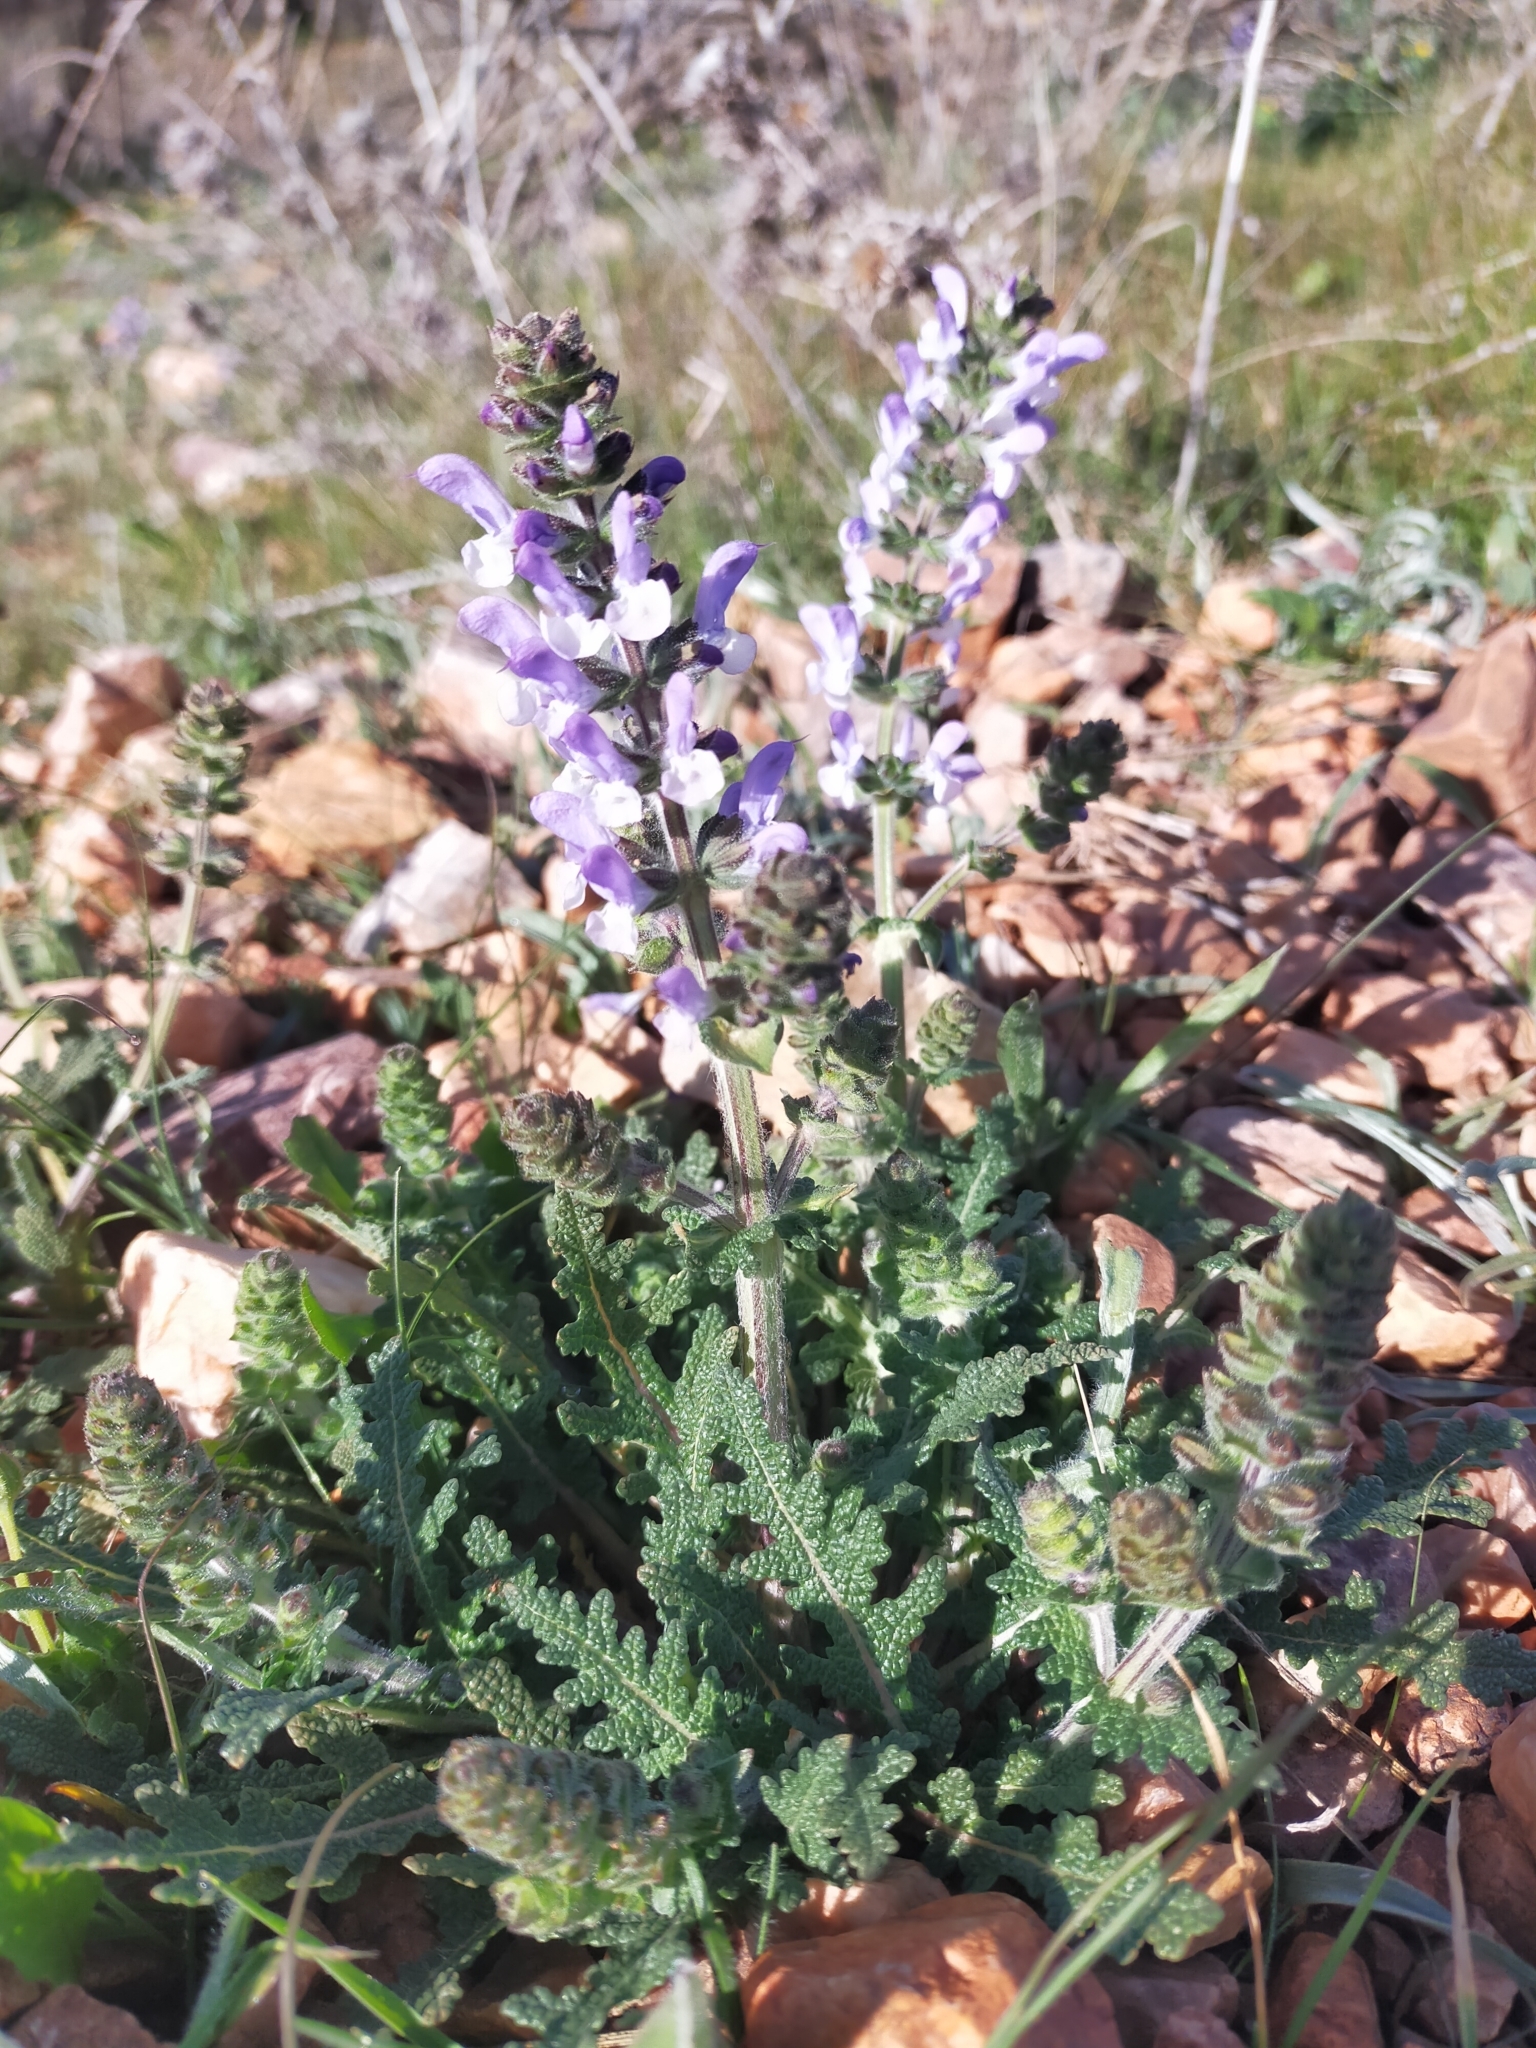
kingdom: Plantae
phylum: Tracheophyta
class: Magnoliopsida
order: Lamiales
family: Lamiaceae
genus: Salvia
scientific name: Salvia verbenaca
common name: Wild clary
